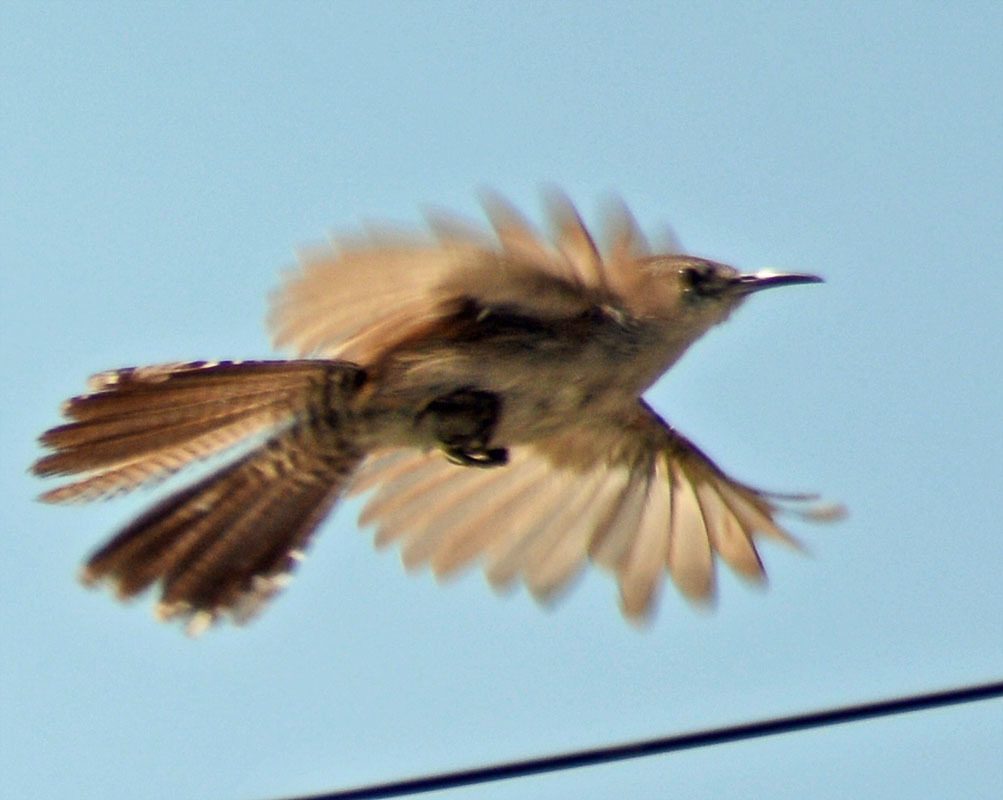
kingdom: Animalia
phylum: Chordata
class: Aves
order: Passeriformes
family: Troglodytidae
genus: Thryomanes
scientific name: Thryomanes bewickii
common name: Bewick's wren
